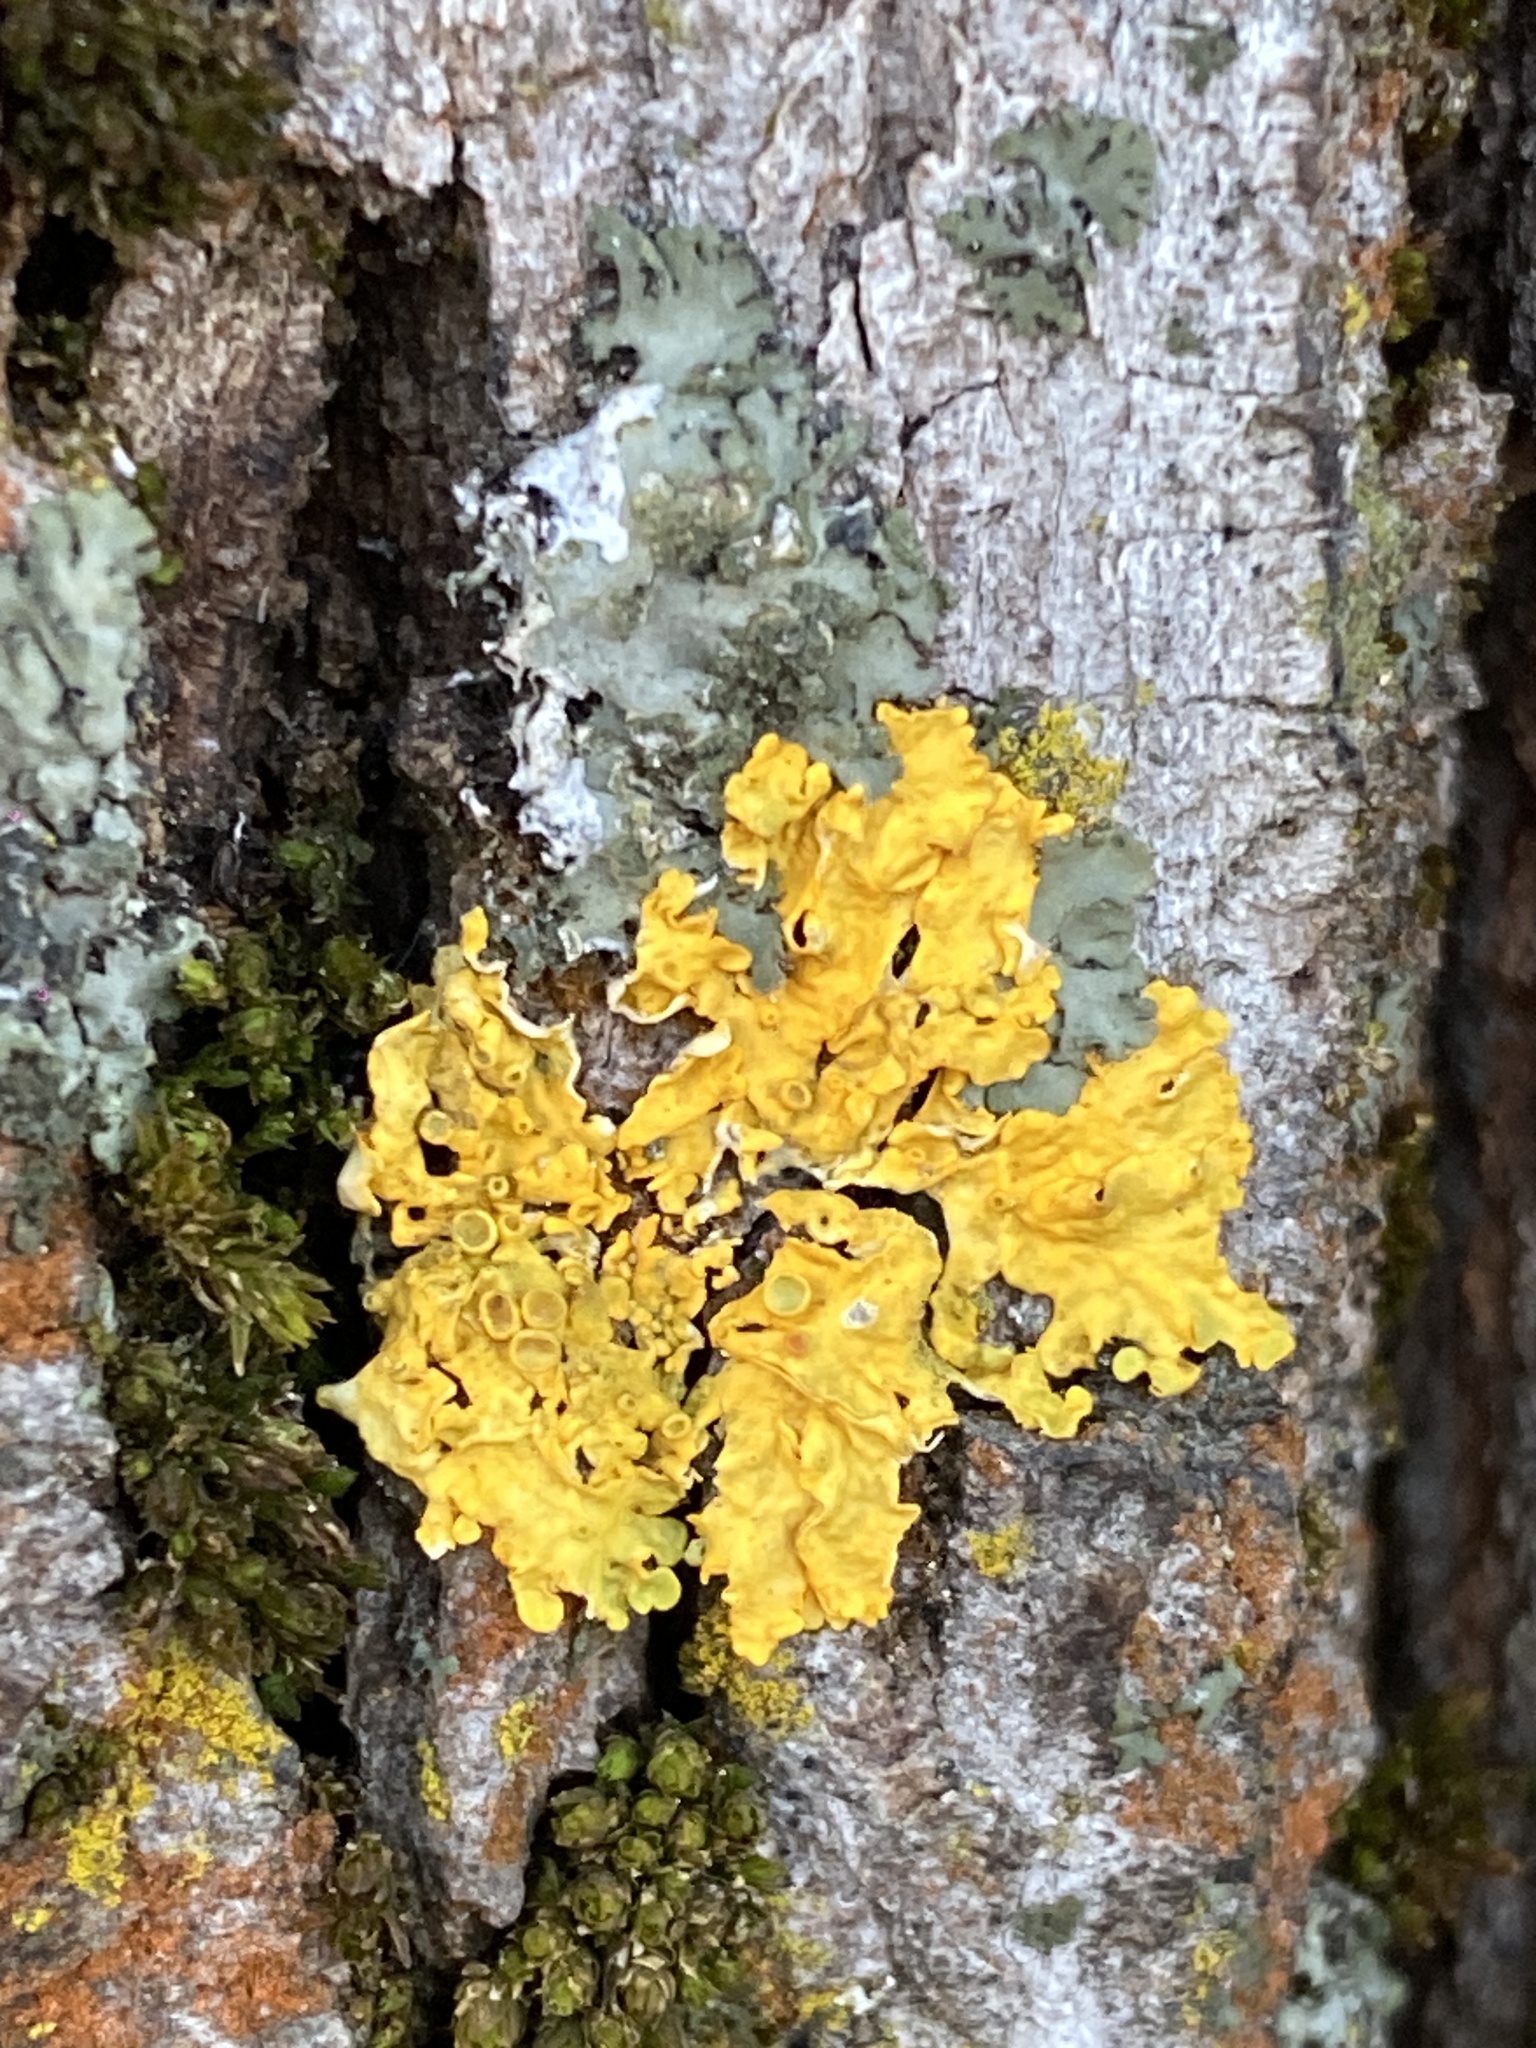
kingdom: Fungi
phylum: Ascomycota
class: Lecanoromycetes
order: Teloschistales
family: Teloschistaceae
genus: Xanthoria
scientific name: Xanthoria parietina
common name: Common orange lichen
